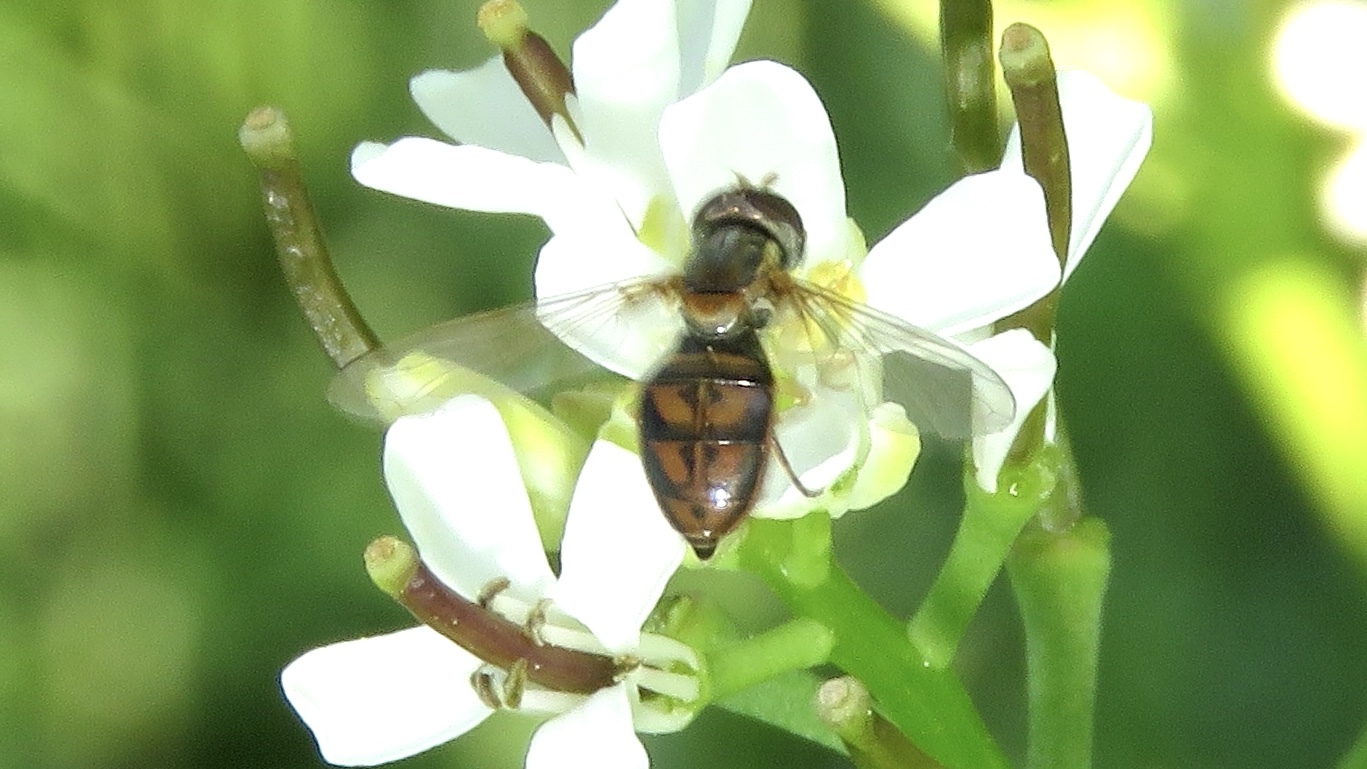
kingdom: Animalia
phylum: Arthropoda
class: Insecta
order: Diptera
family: Syrphidae
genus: Toxomerus
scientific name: Toxomerus marginatus
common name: Syrphid fly
